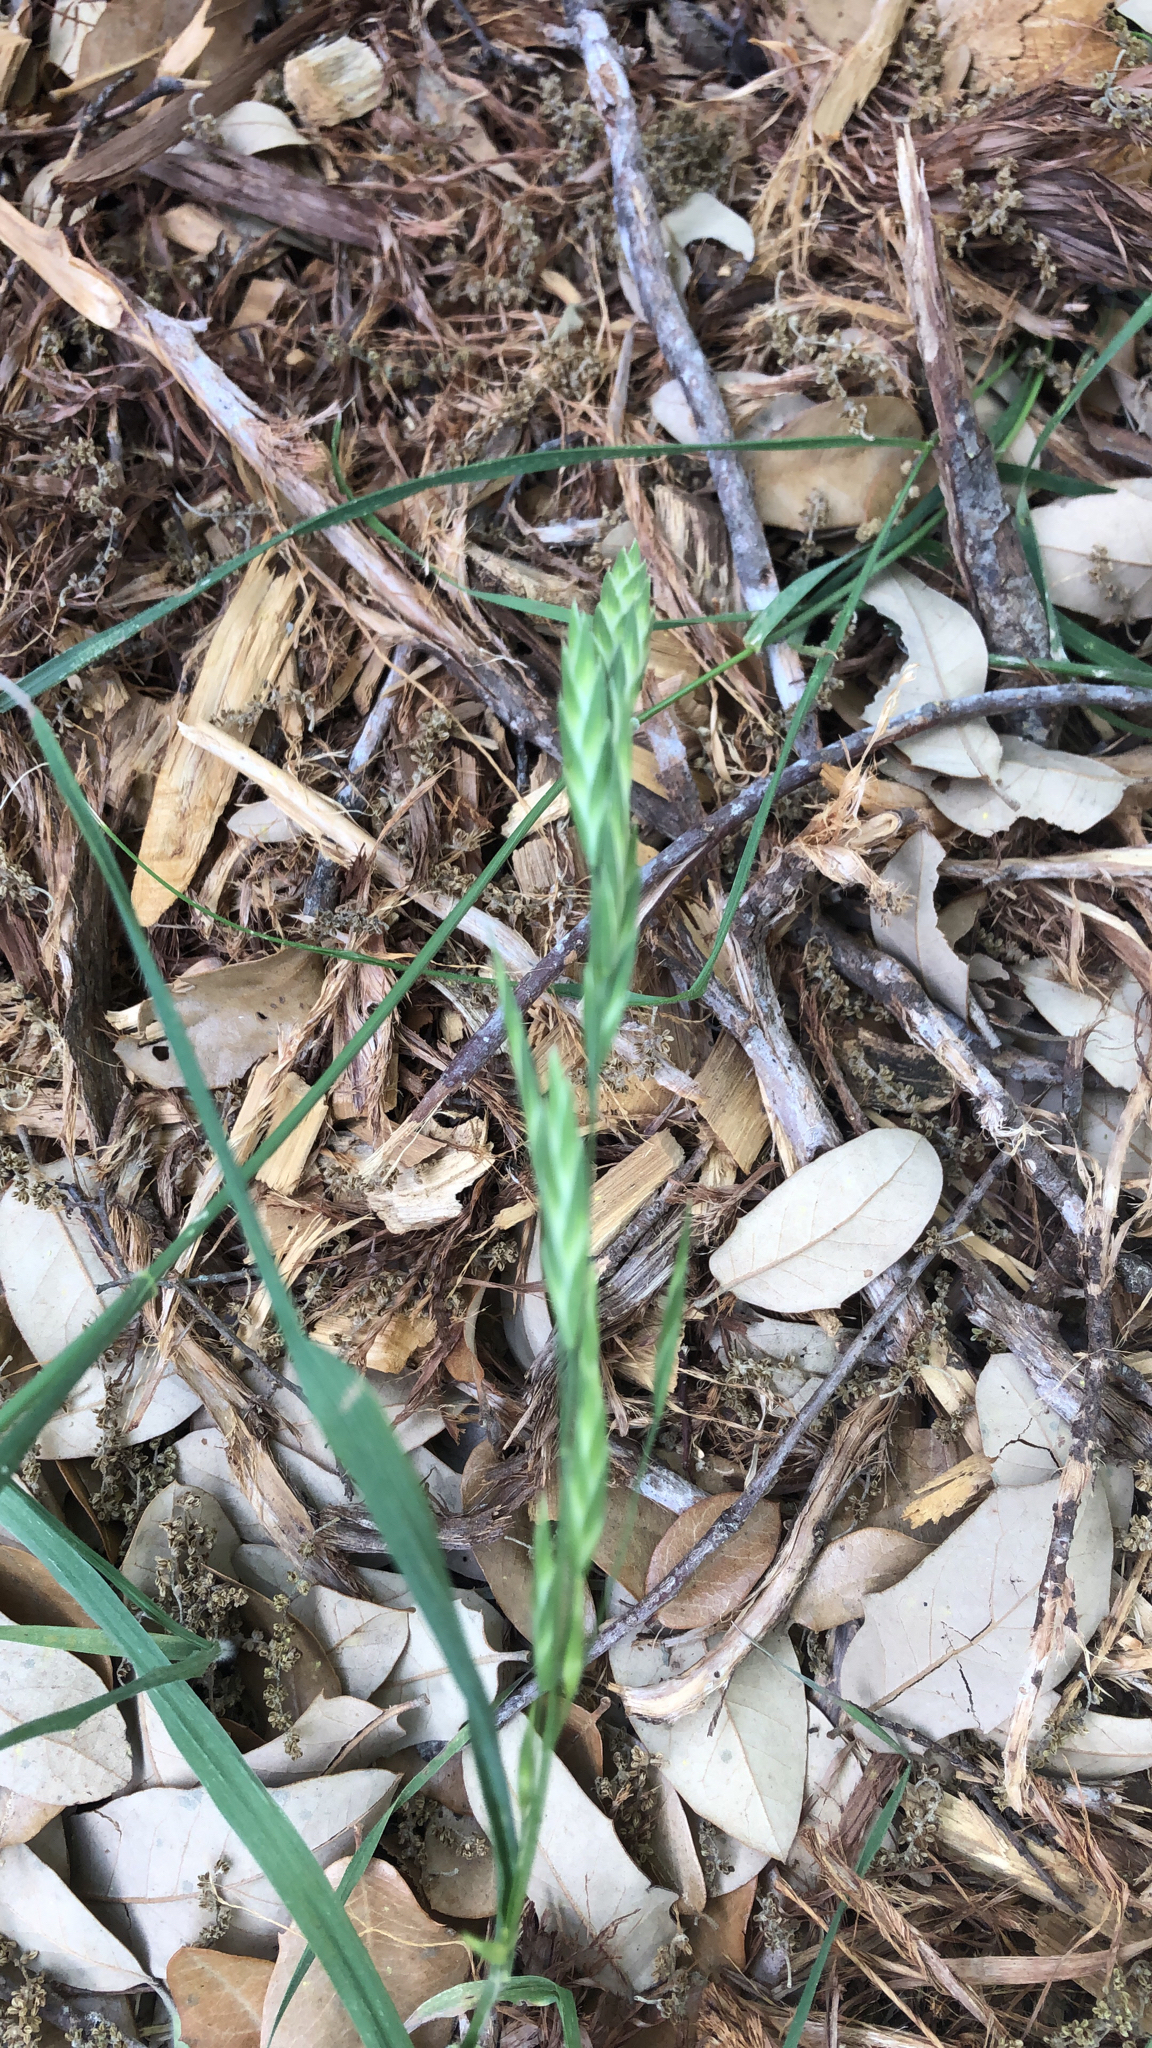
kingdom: Plantae
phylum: Tracheophyta
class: Liliopsida
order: Poales
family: Poaceae
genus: Bromus
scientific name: Bromus catharticus
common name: Rescuegrass
